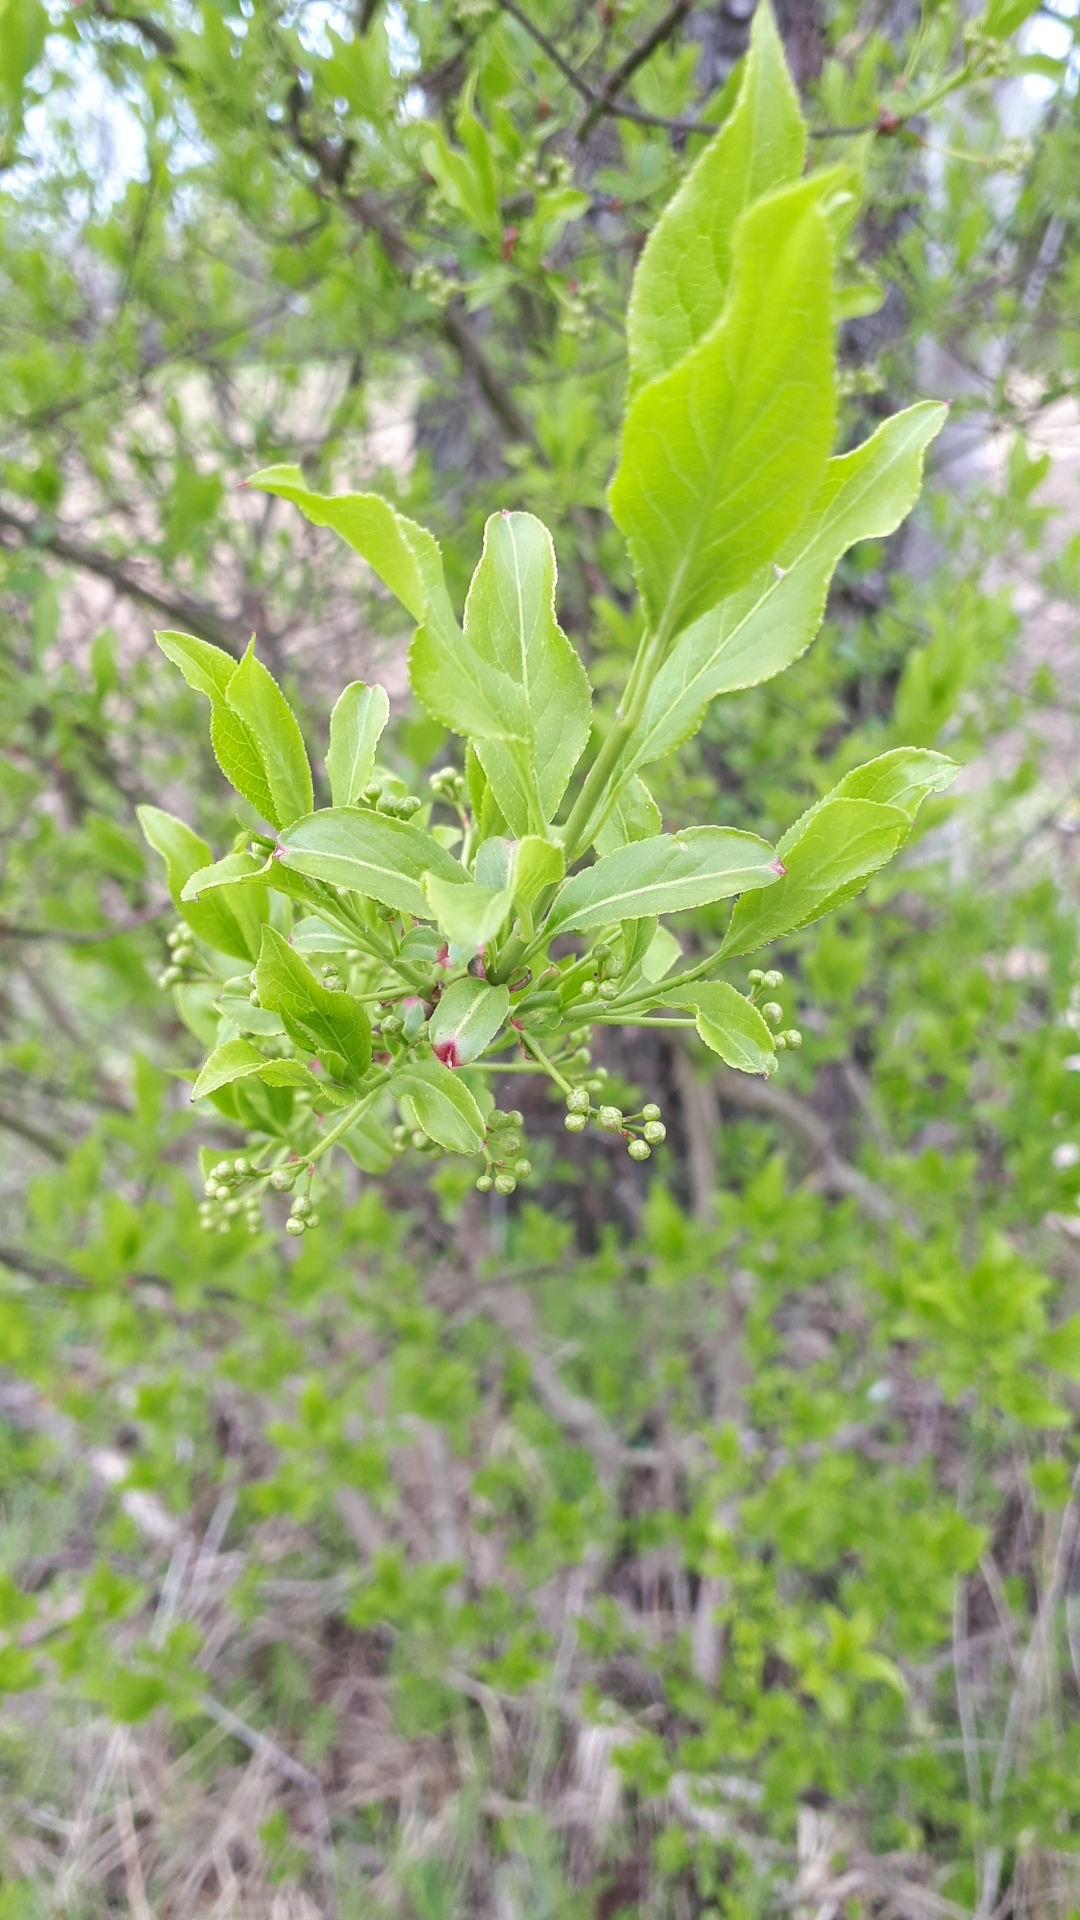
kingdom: Plantae
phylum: Tracheophyta
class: Magnoliopsida
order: Celastrales
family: Celastraceae
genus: Euonymus
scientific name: Euonymus europaeus
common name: Spindle
